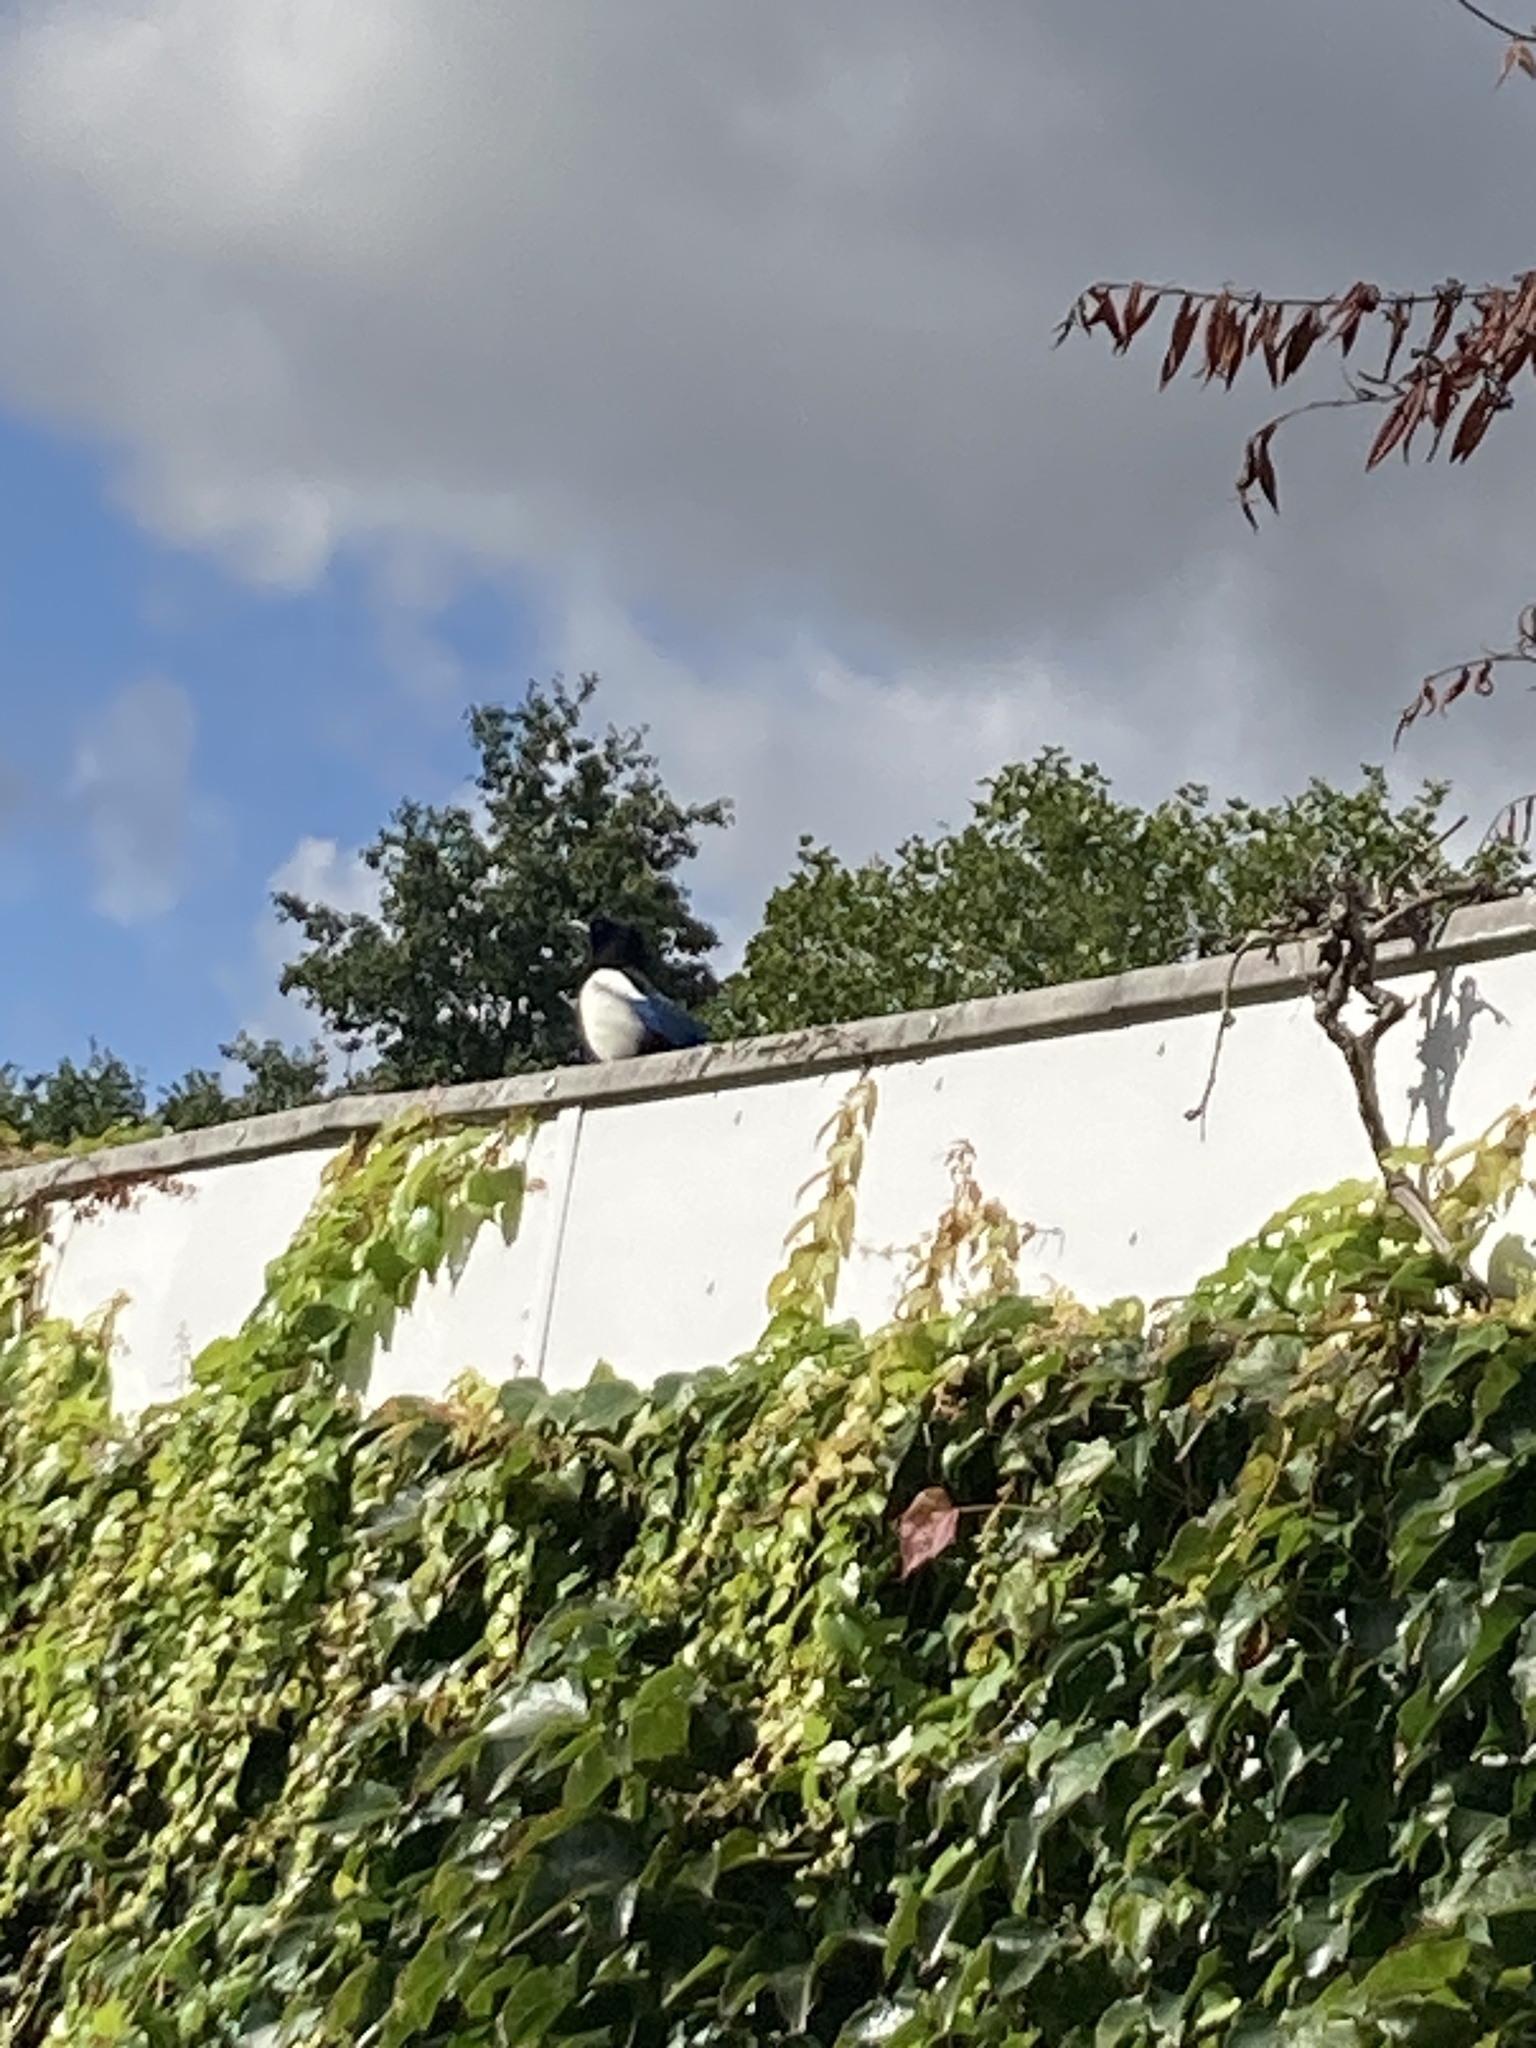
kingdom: Animalia
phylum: Chordata
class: Aves
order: Passeriformes
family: Corvidae
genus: Pica
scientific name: Pica pica
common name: Eurasian magpie
